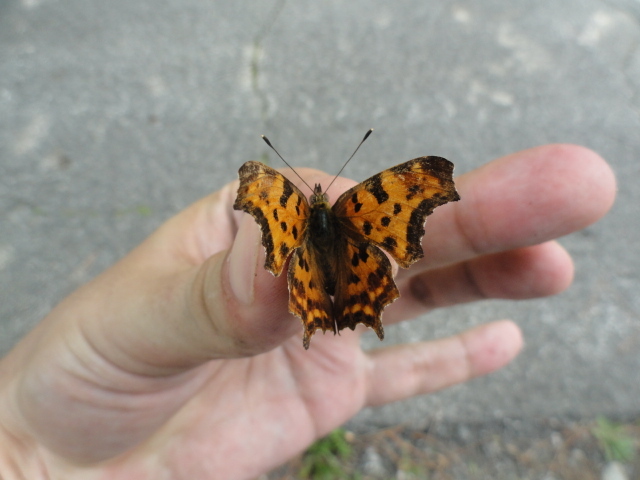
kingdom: Animalia
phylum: Arthropoda
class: Insecta
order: Lepidoptera
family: Nymphalidae
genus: Polygonia
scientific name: Polygonia c-album
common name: Comma
